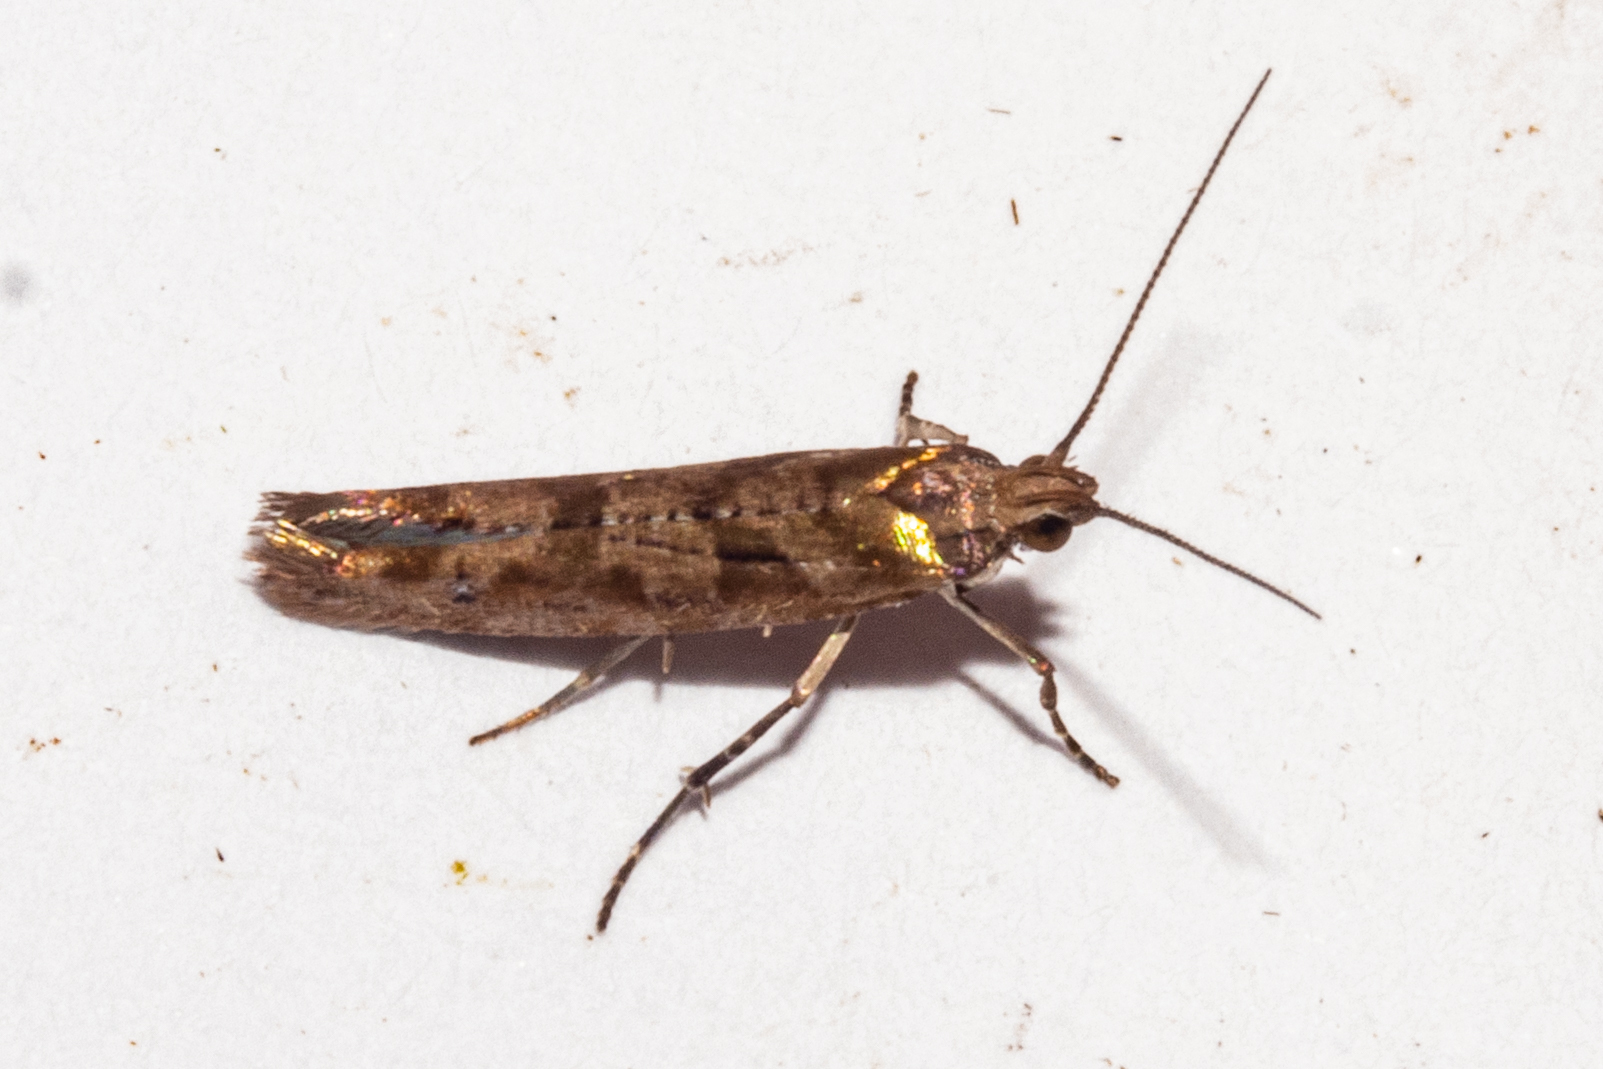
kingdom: Animalia
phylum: Arthropoda
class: Insecta
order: Lepidoptera
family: Glyphipterigidae
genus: Chrysorthenches
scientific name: Chrysorthenches porphyritis
